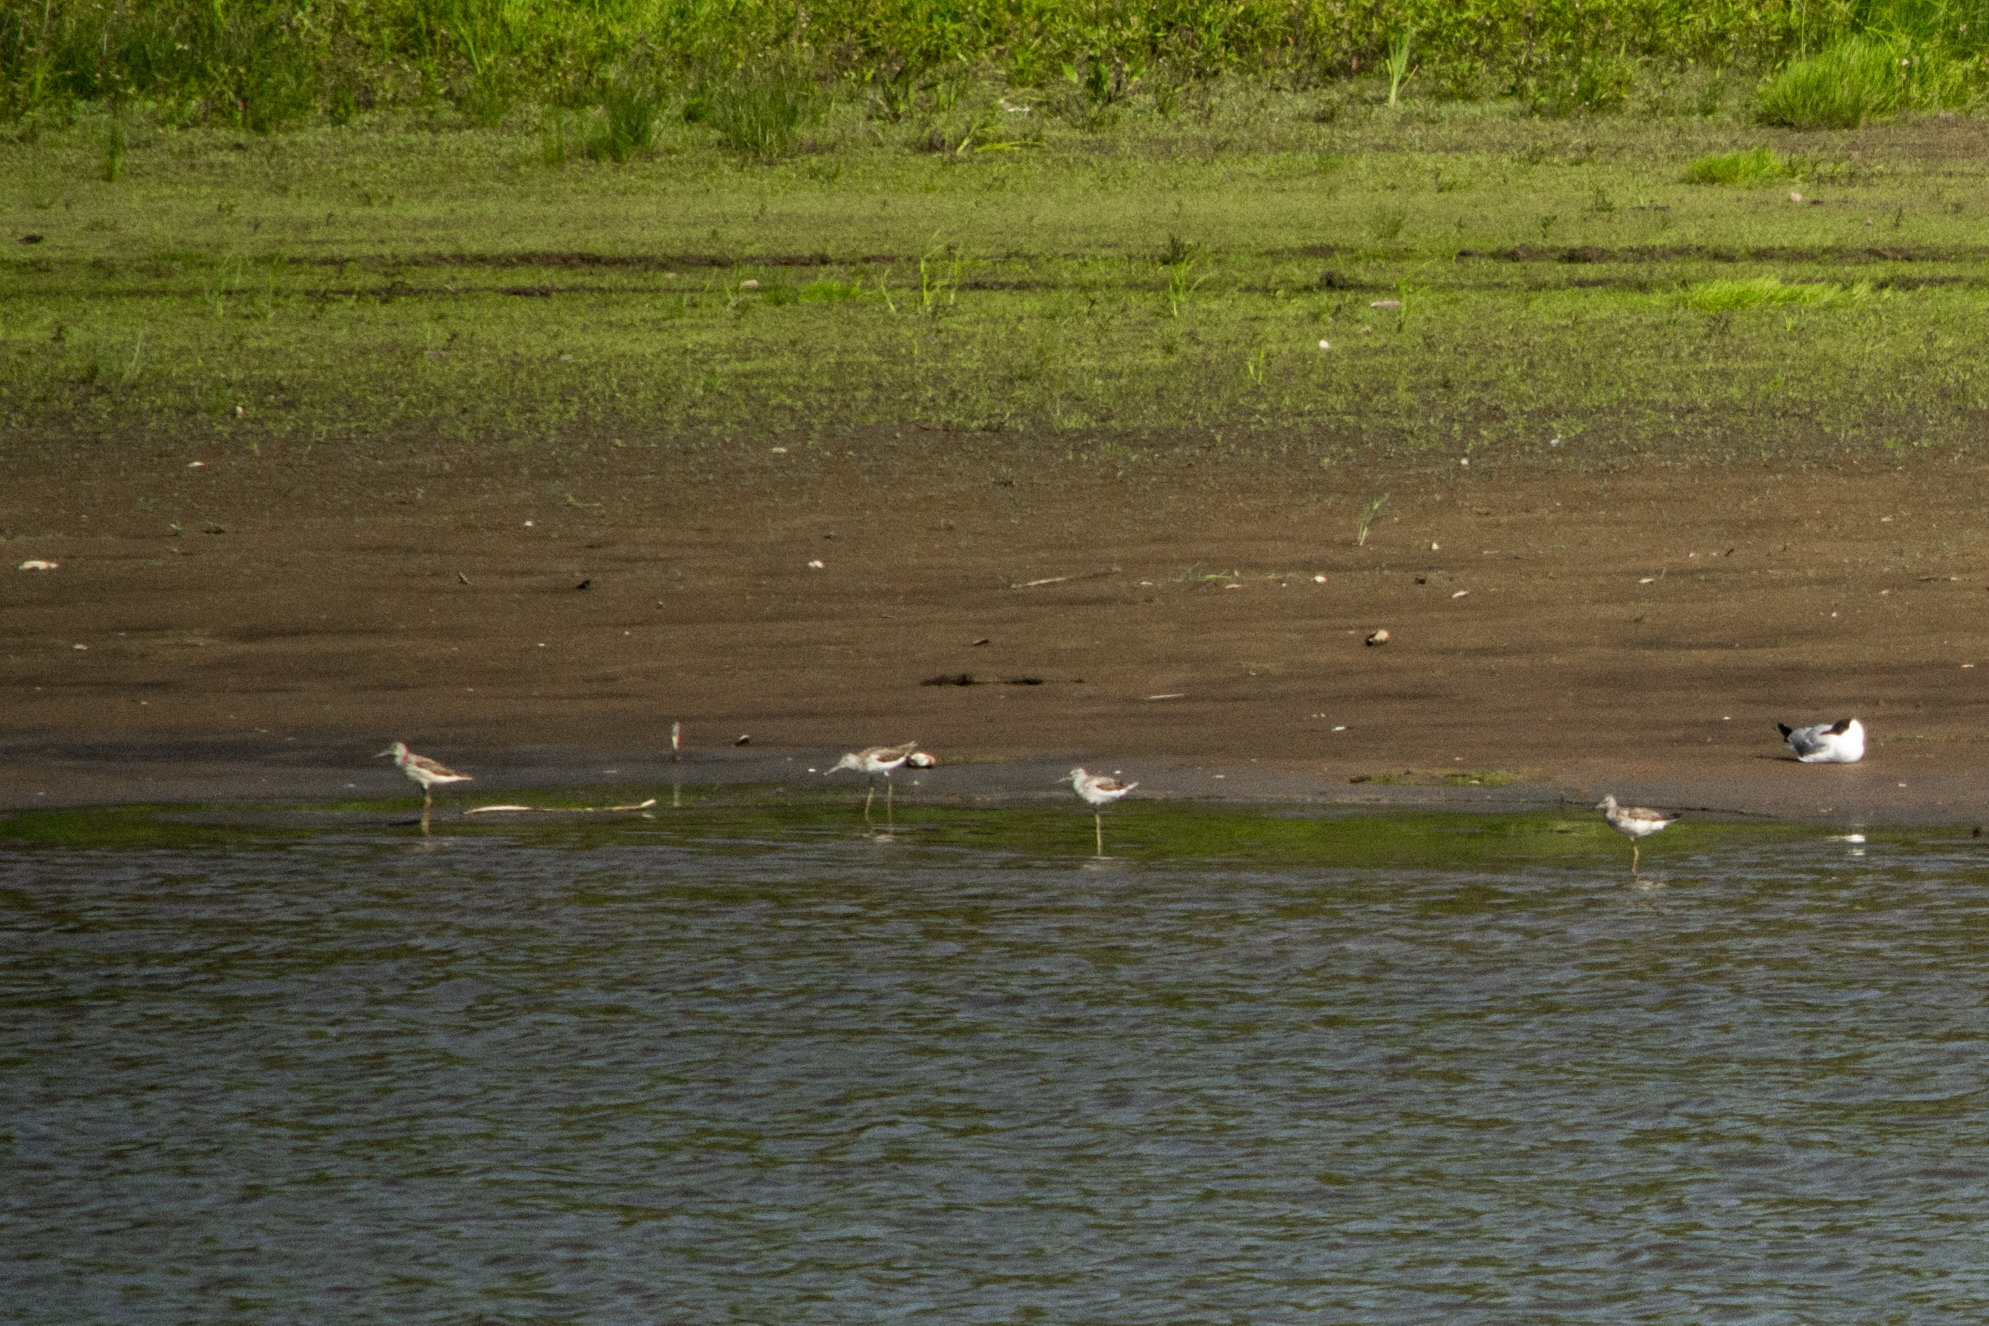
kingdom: Animalia
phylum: Chordata
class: Aves
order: Charadriiformes
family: Scolopacidae
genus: Tringa
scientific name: Tringa nebularia
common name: Common greenshank
